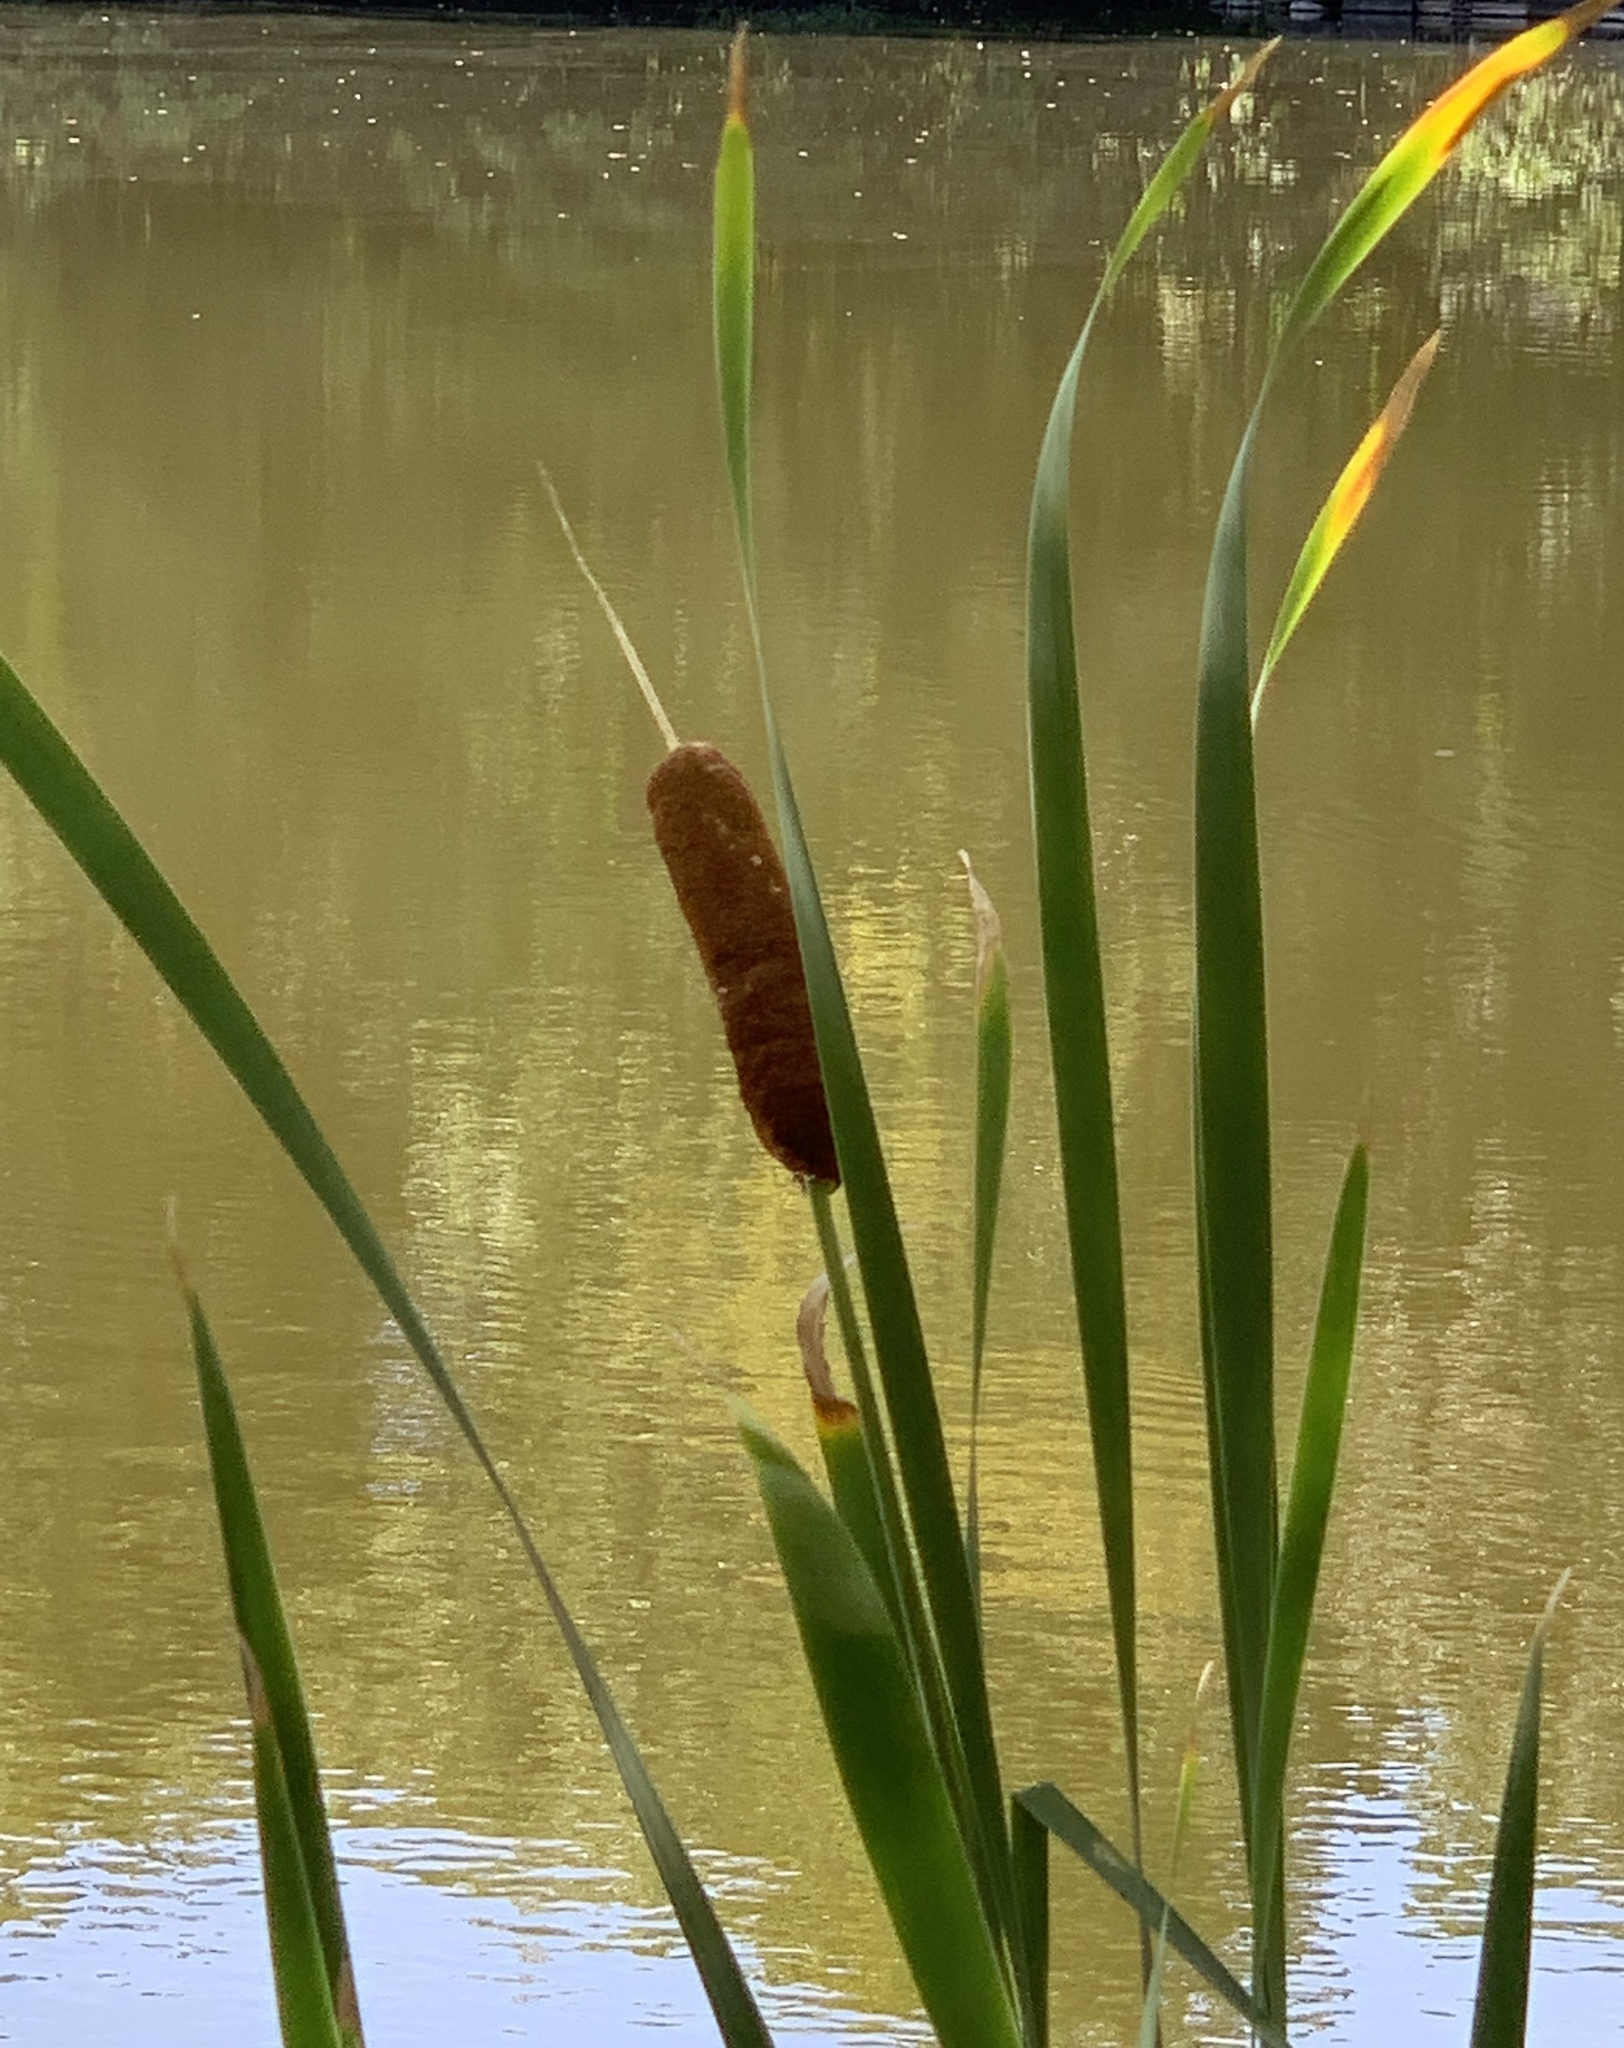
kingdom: Plantae
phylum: Tracheophyta
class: Liliopsida
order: Poales
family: Typhaceae
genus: Typha
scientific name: Typha latifolia
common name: Broadleaf cattail
